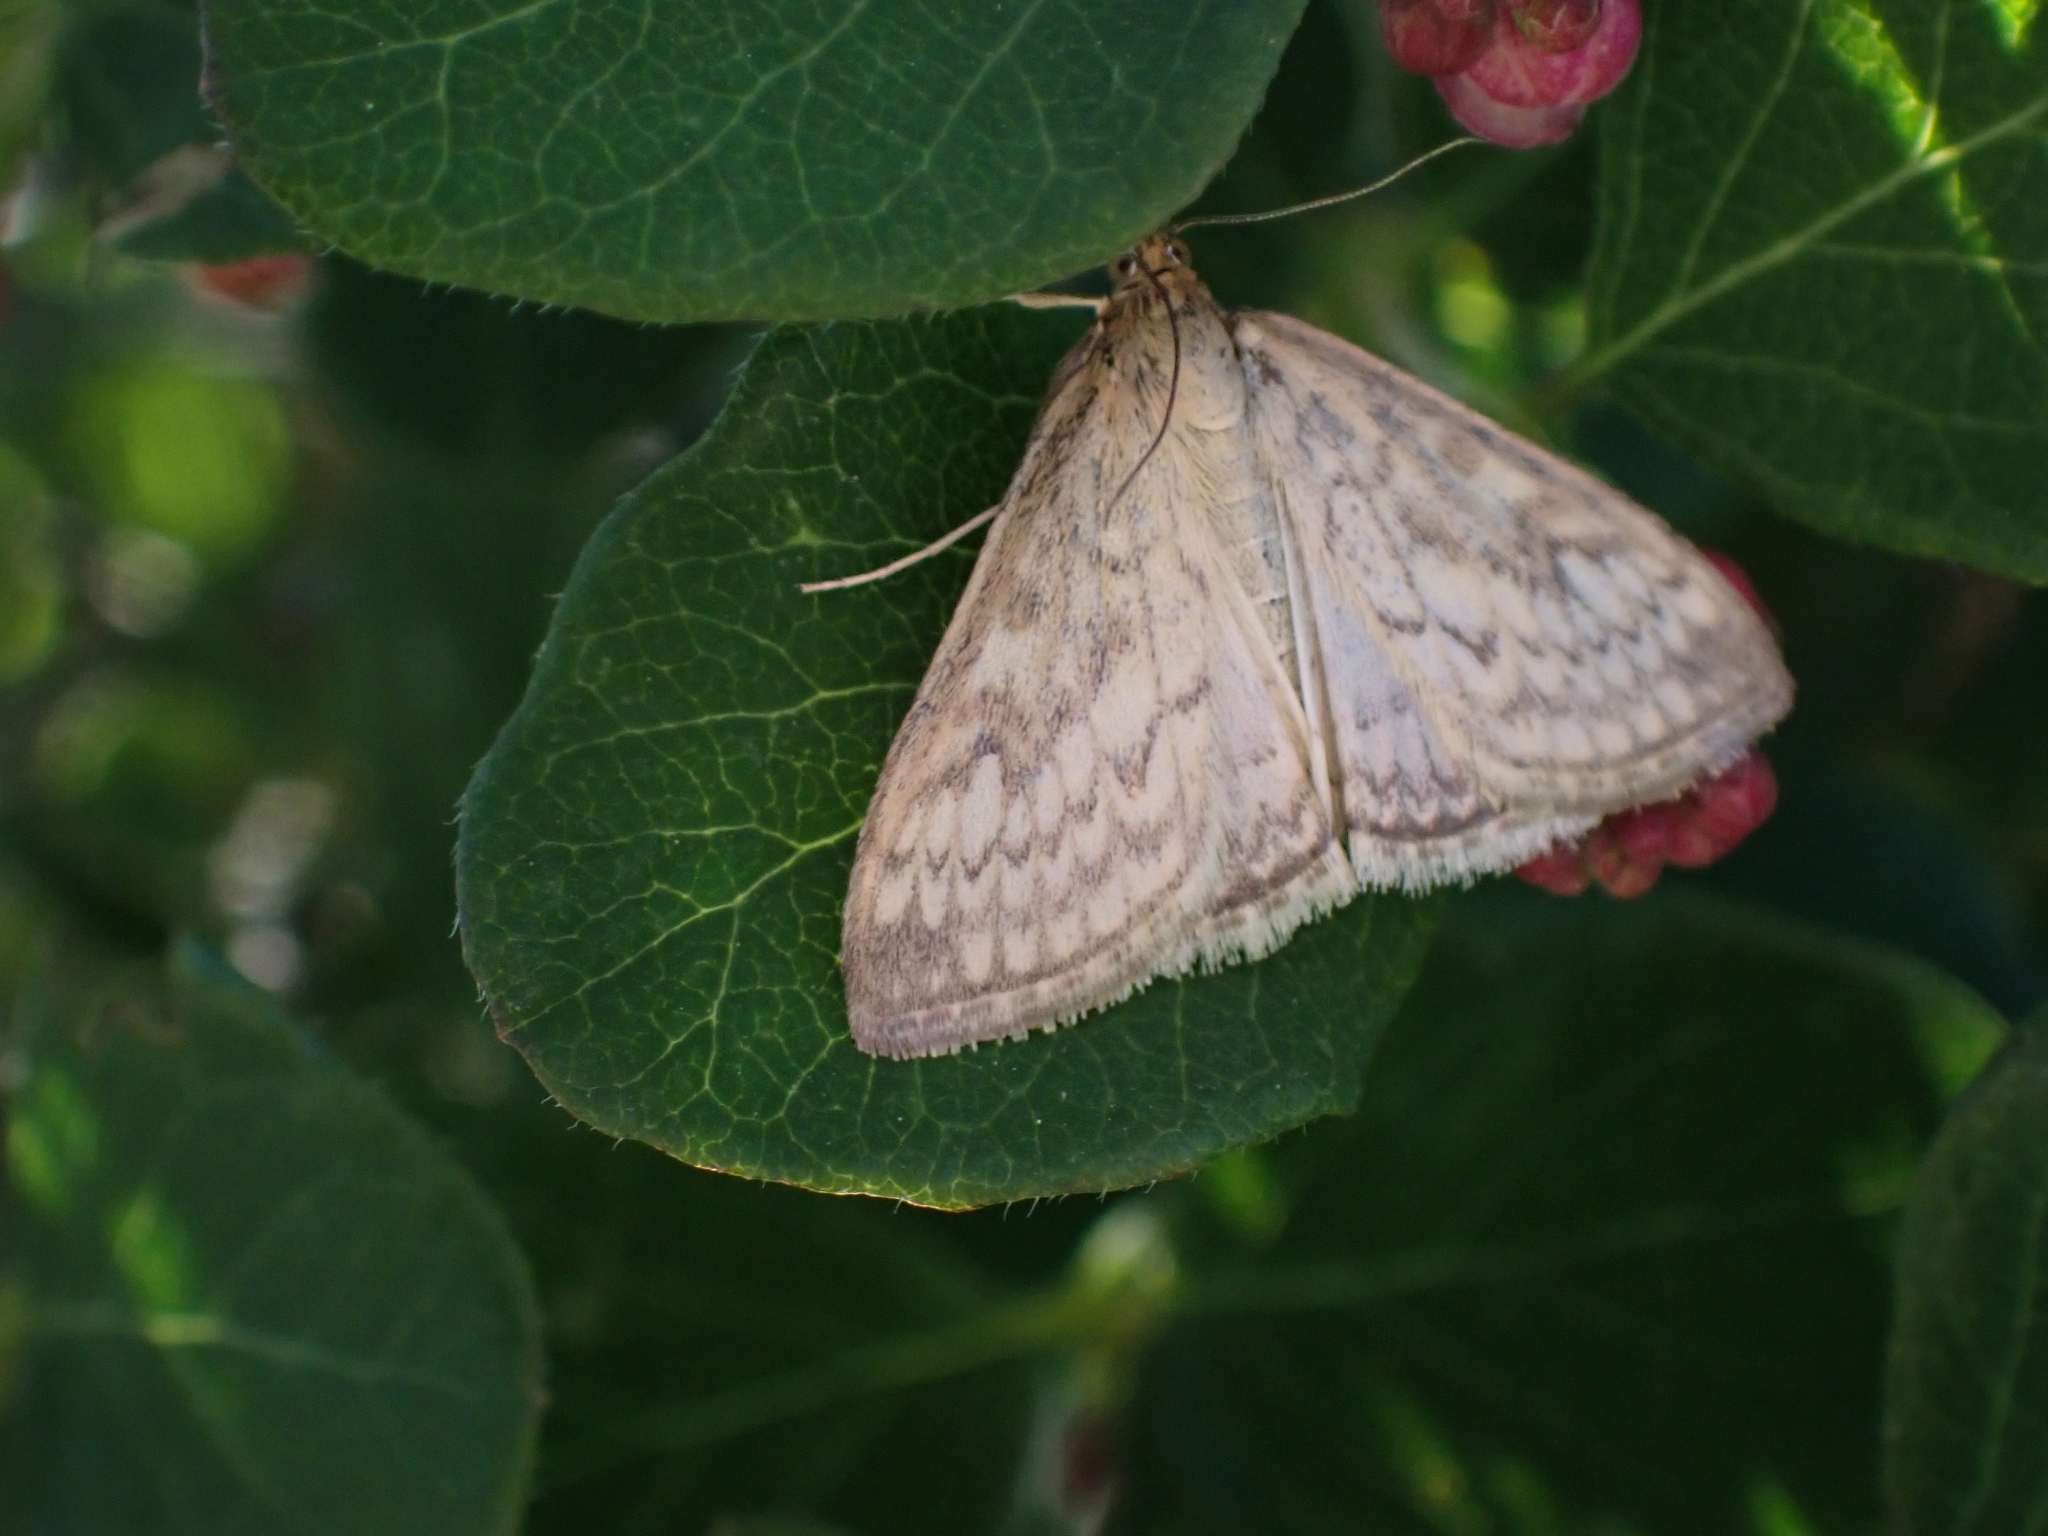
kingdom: Animalia
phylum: Arthropoda
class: Insecta
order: Lepidoptera
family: Crambidae
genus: Sitochroa
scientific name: Sitochroa chortalis
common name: Dimorphic sitochroa moth
